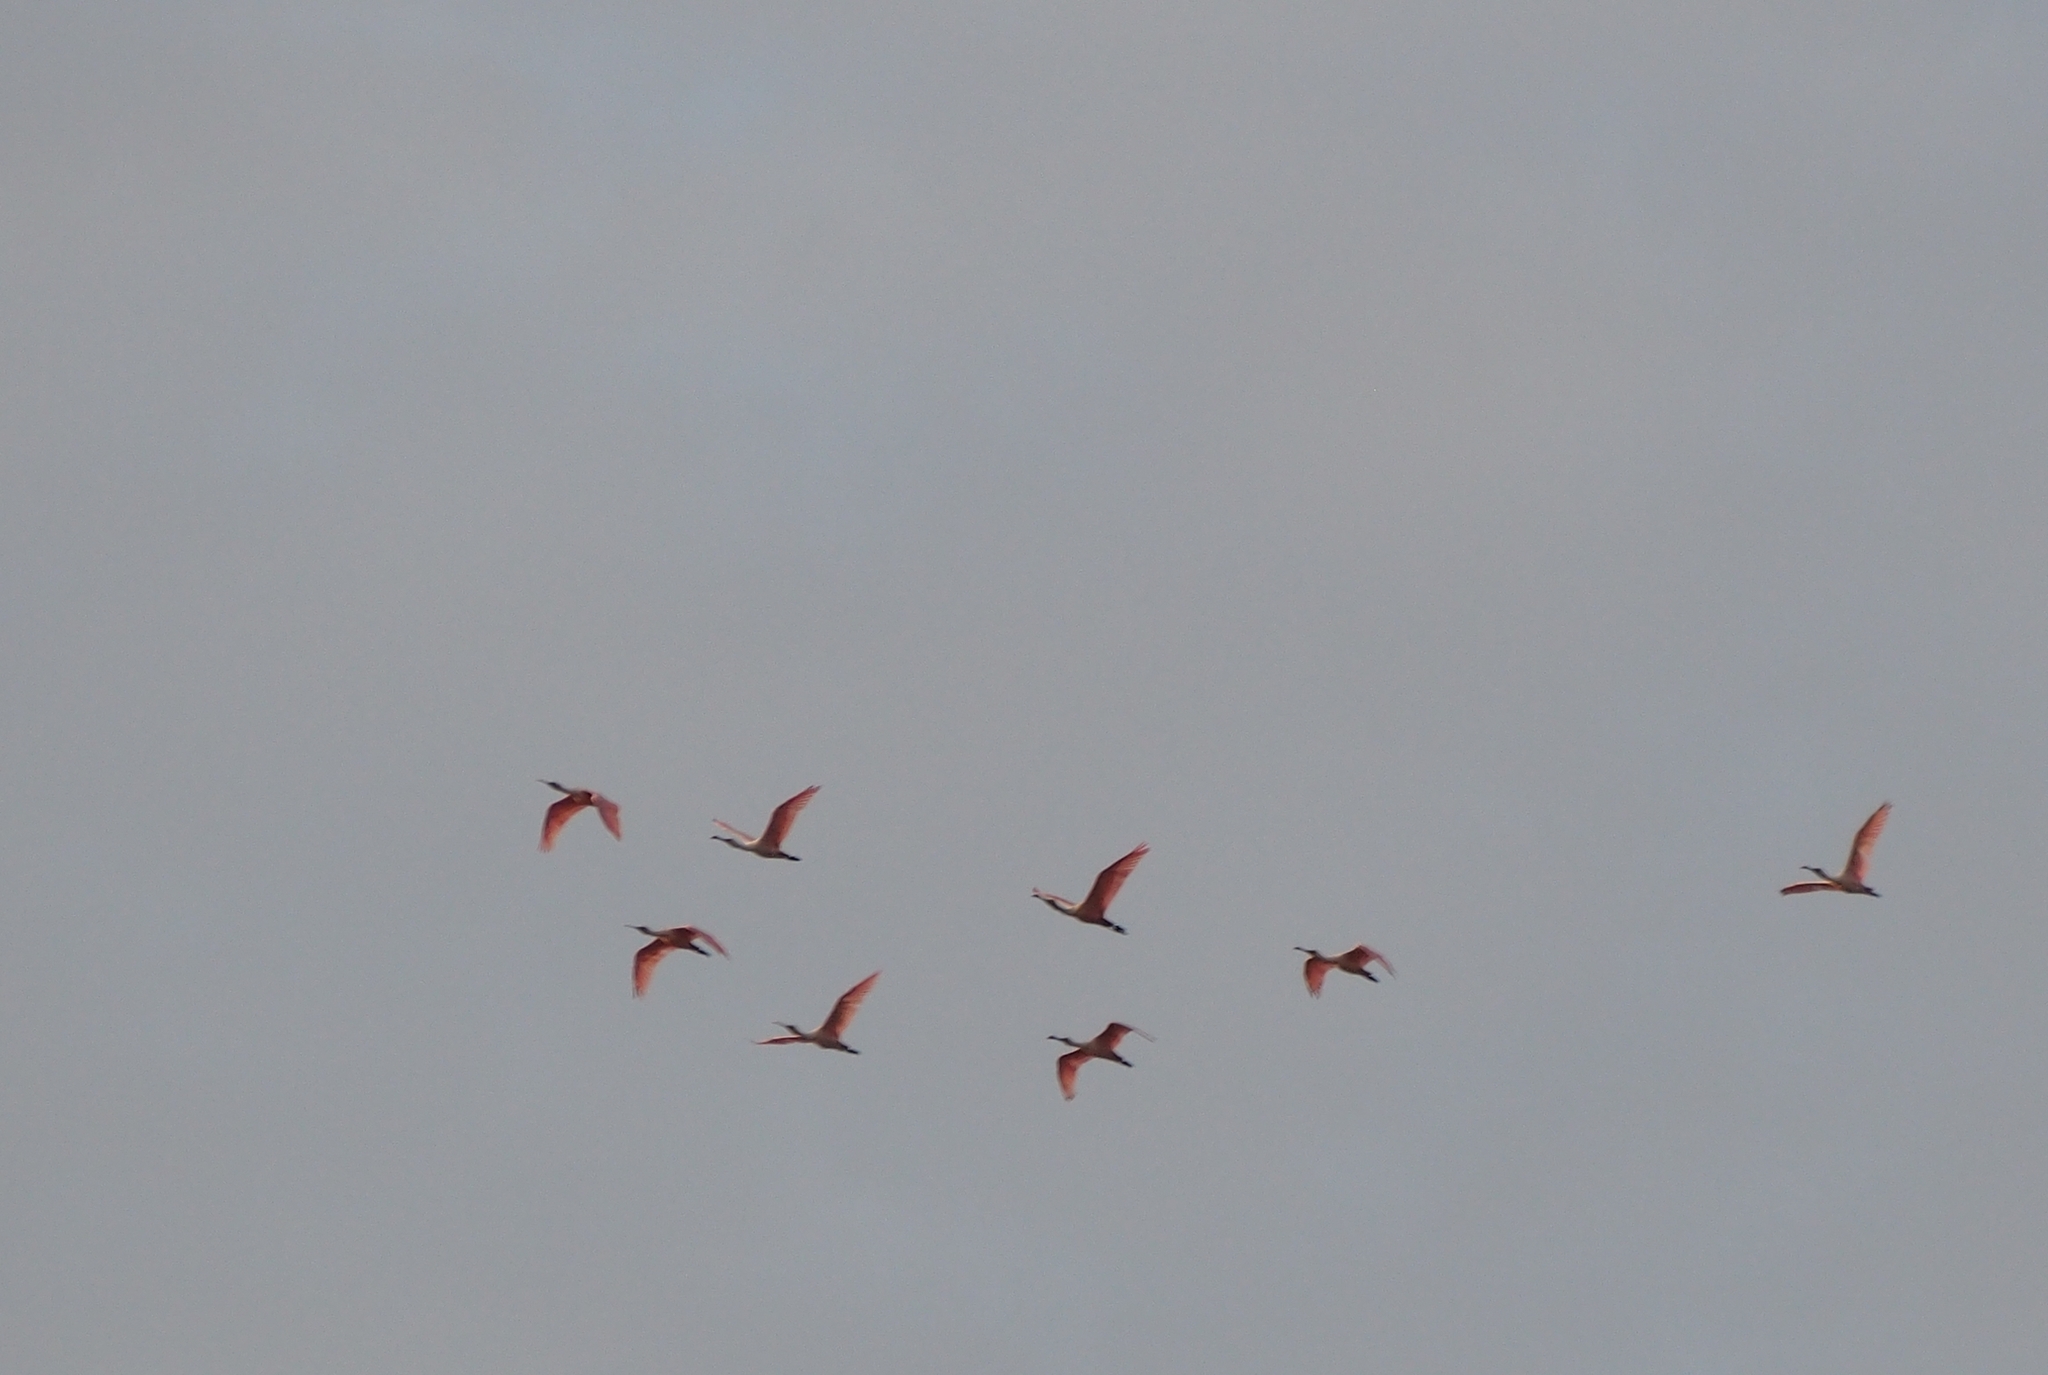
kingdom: Animalia
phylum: Chordata
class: Aves
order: Pelecaniformes
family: Threskiornithidae
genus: Platalea
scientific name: Platalea ajaja
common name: Roseate spoonbill
